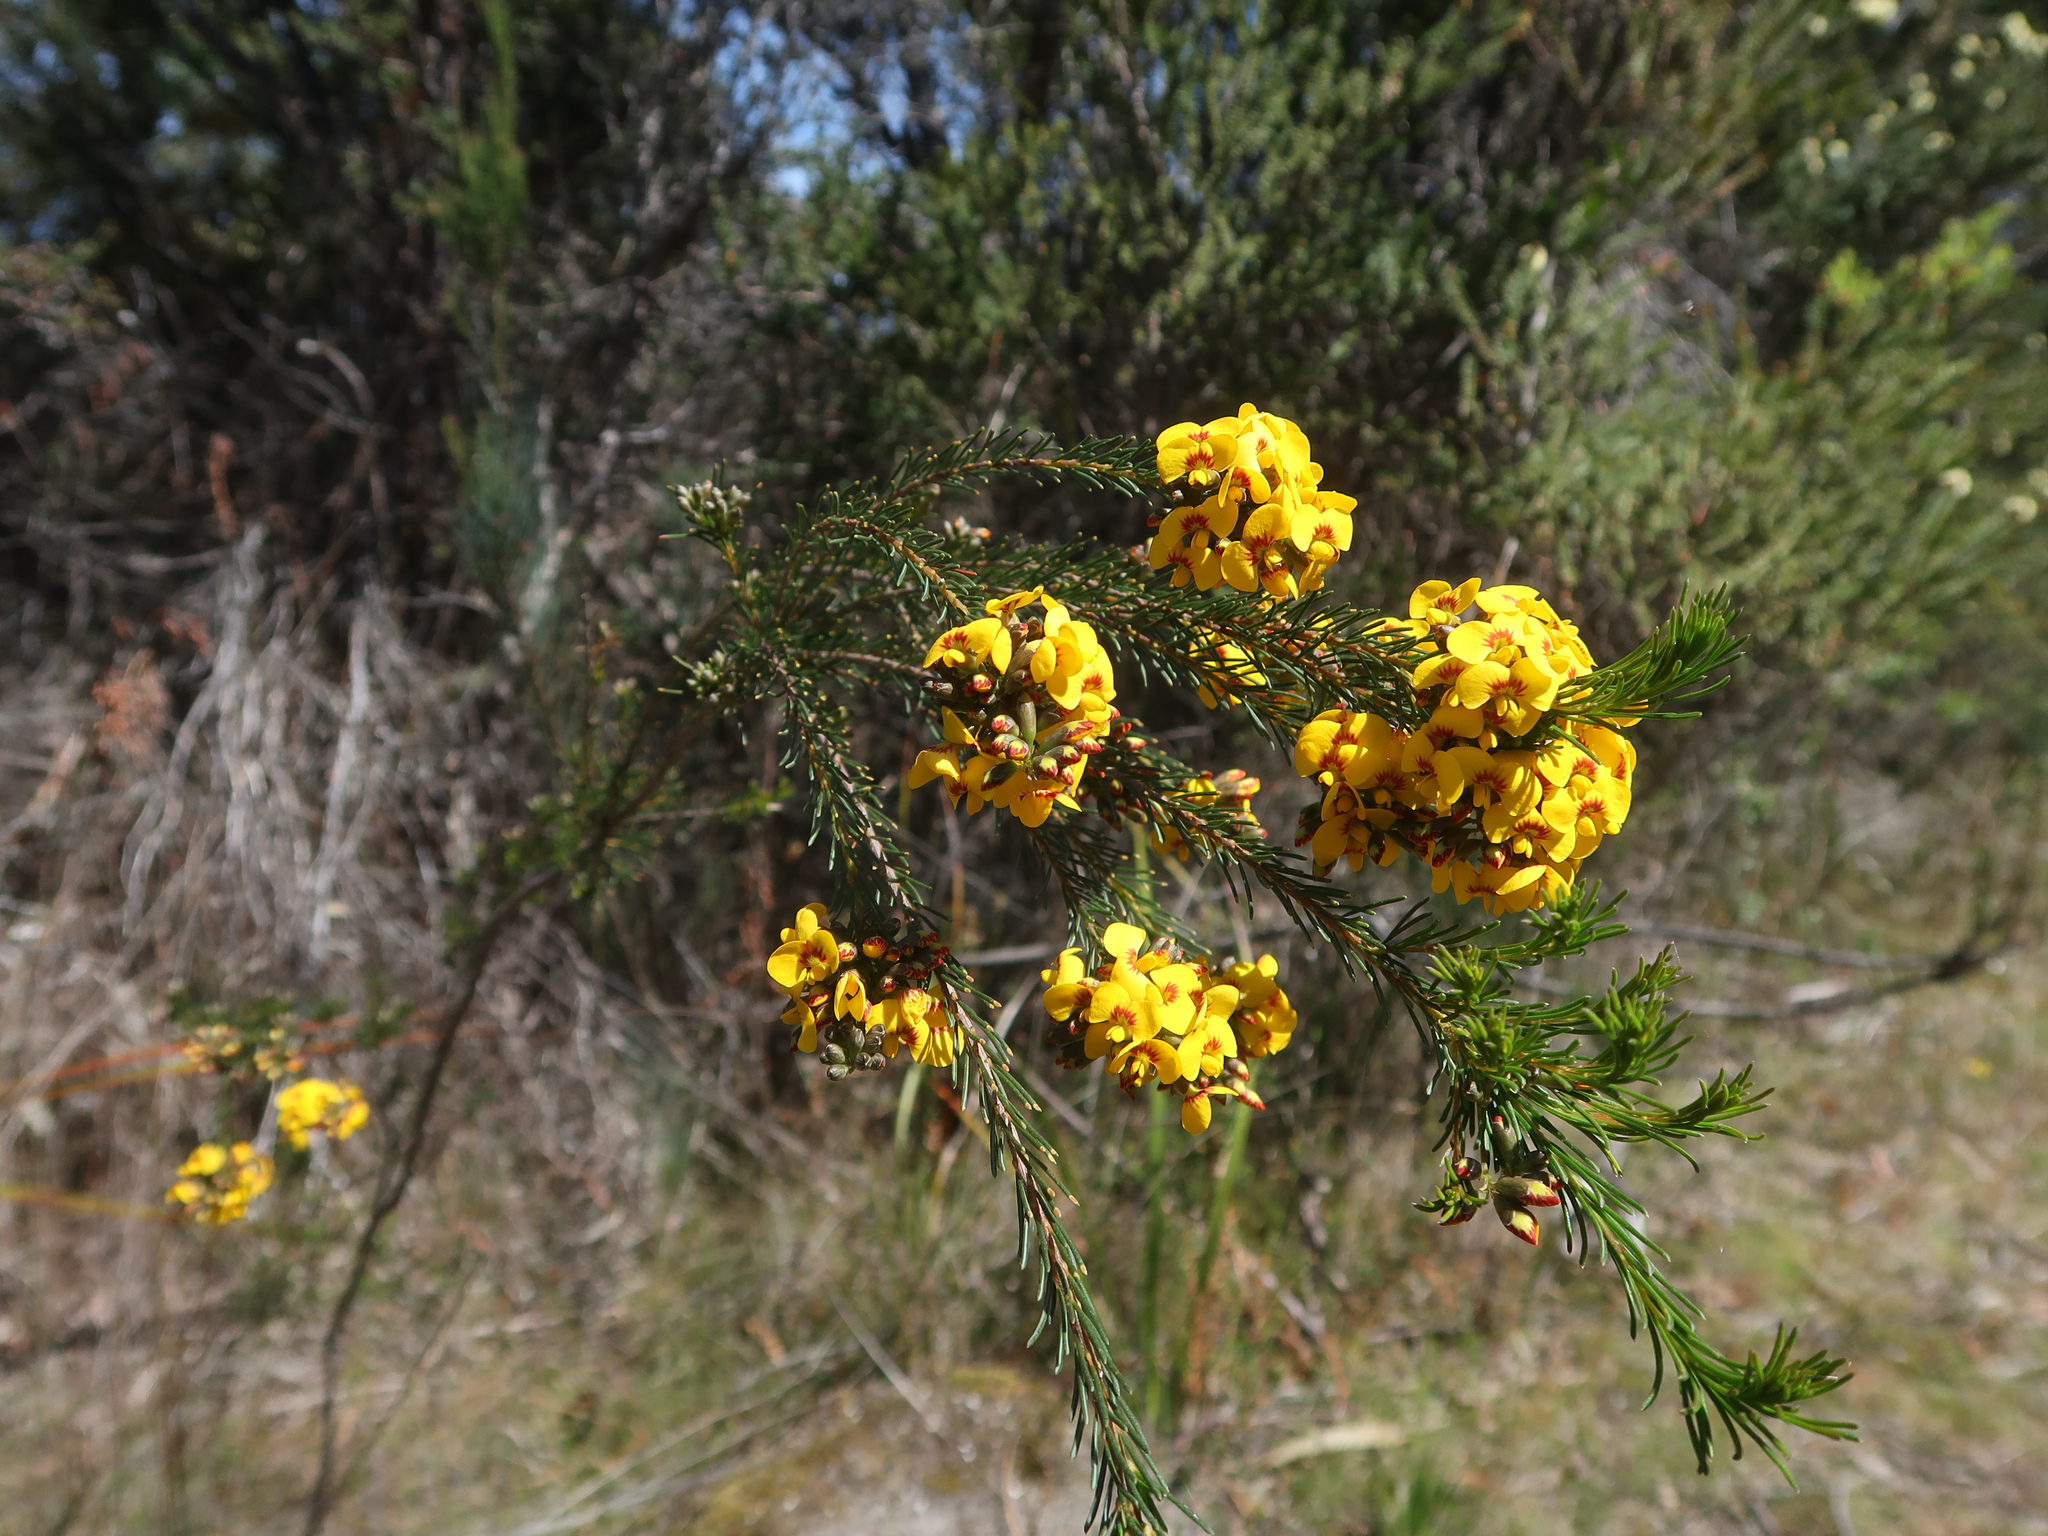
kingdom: Plantae
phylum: Tracheophyta
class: Magnoliopsida
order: Fabales
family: Fabaceae
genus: Dillwynia
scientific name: Dillwynia glaberrima
